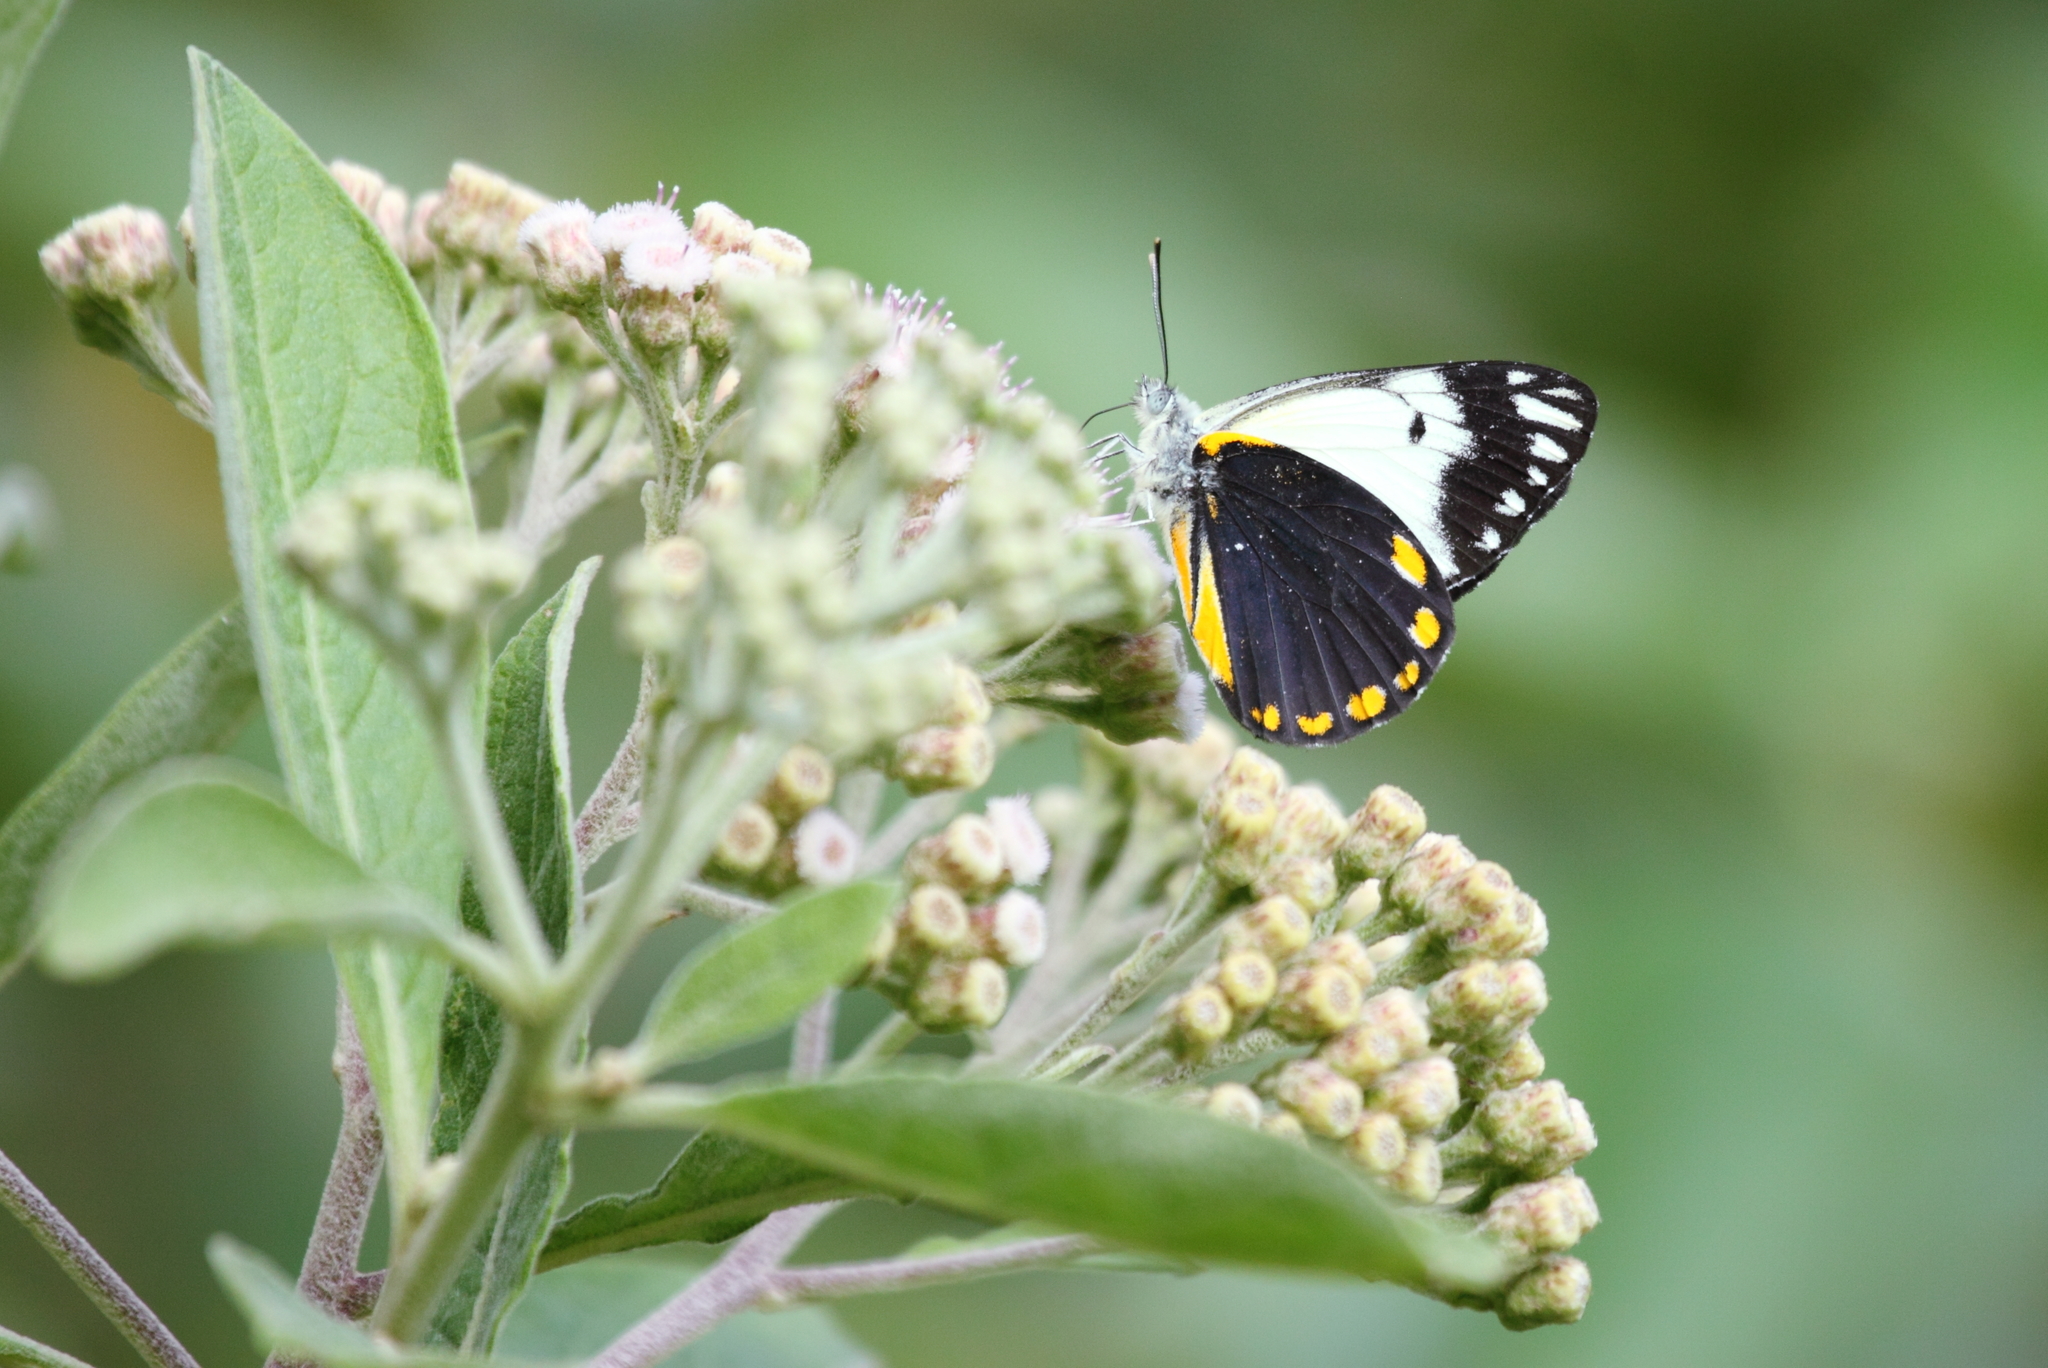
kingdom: Animalia
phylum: Arthropoda
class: Insecta
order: Lepidoptera
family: Pieridae
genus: Belenois
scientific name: Belenois java
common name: Caper white
